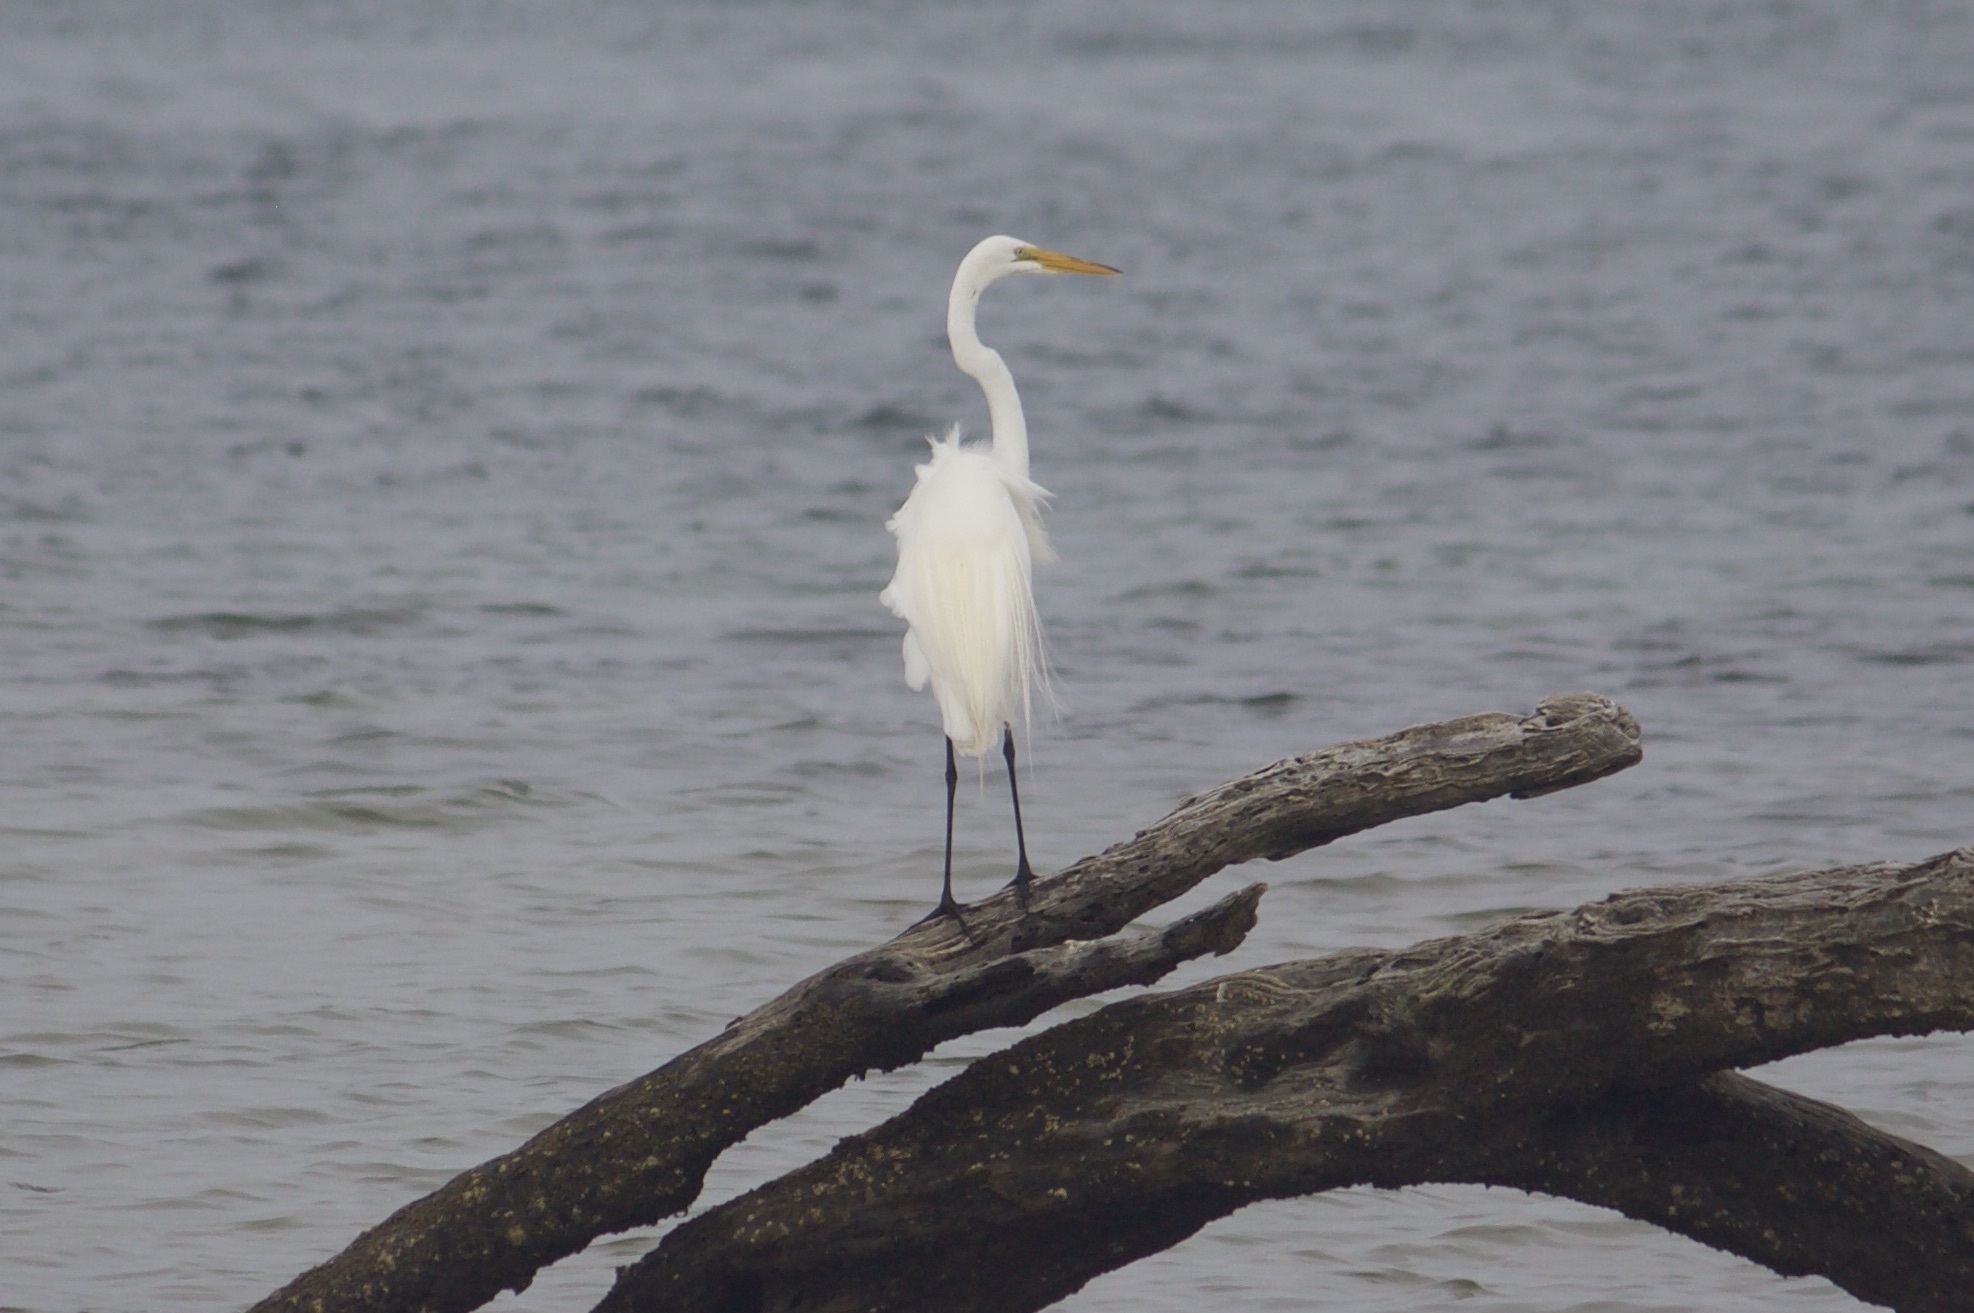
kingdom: Animalia
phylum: Chordata
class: Aves
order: Pelecaniformes
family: Ardeidae
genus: Ardea
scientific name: Ardea alba
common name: Great egret
